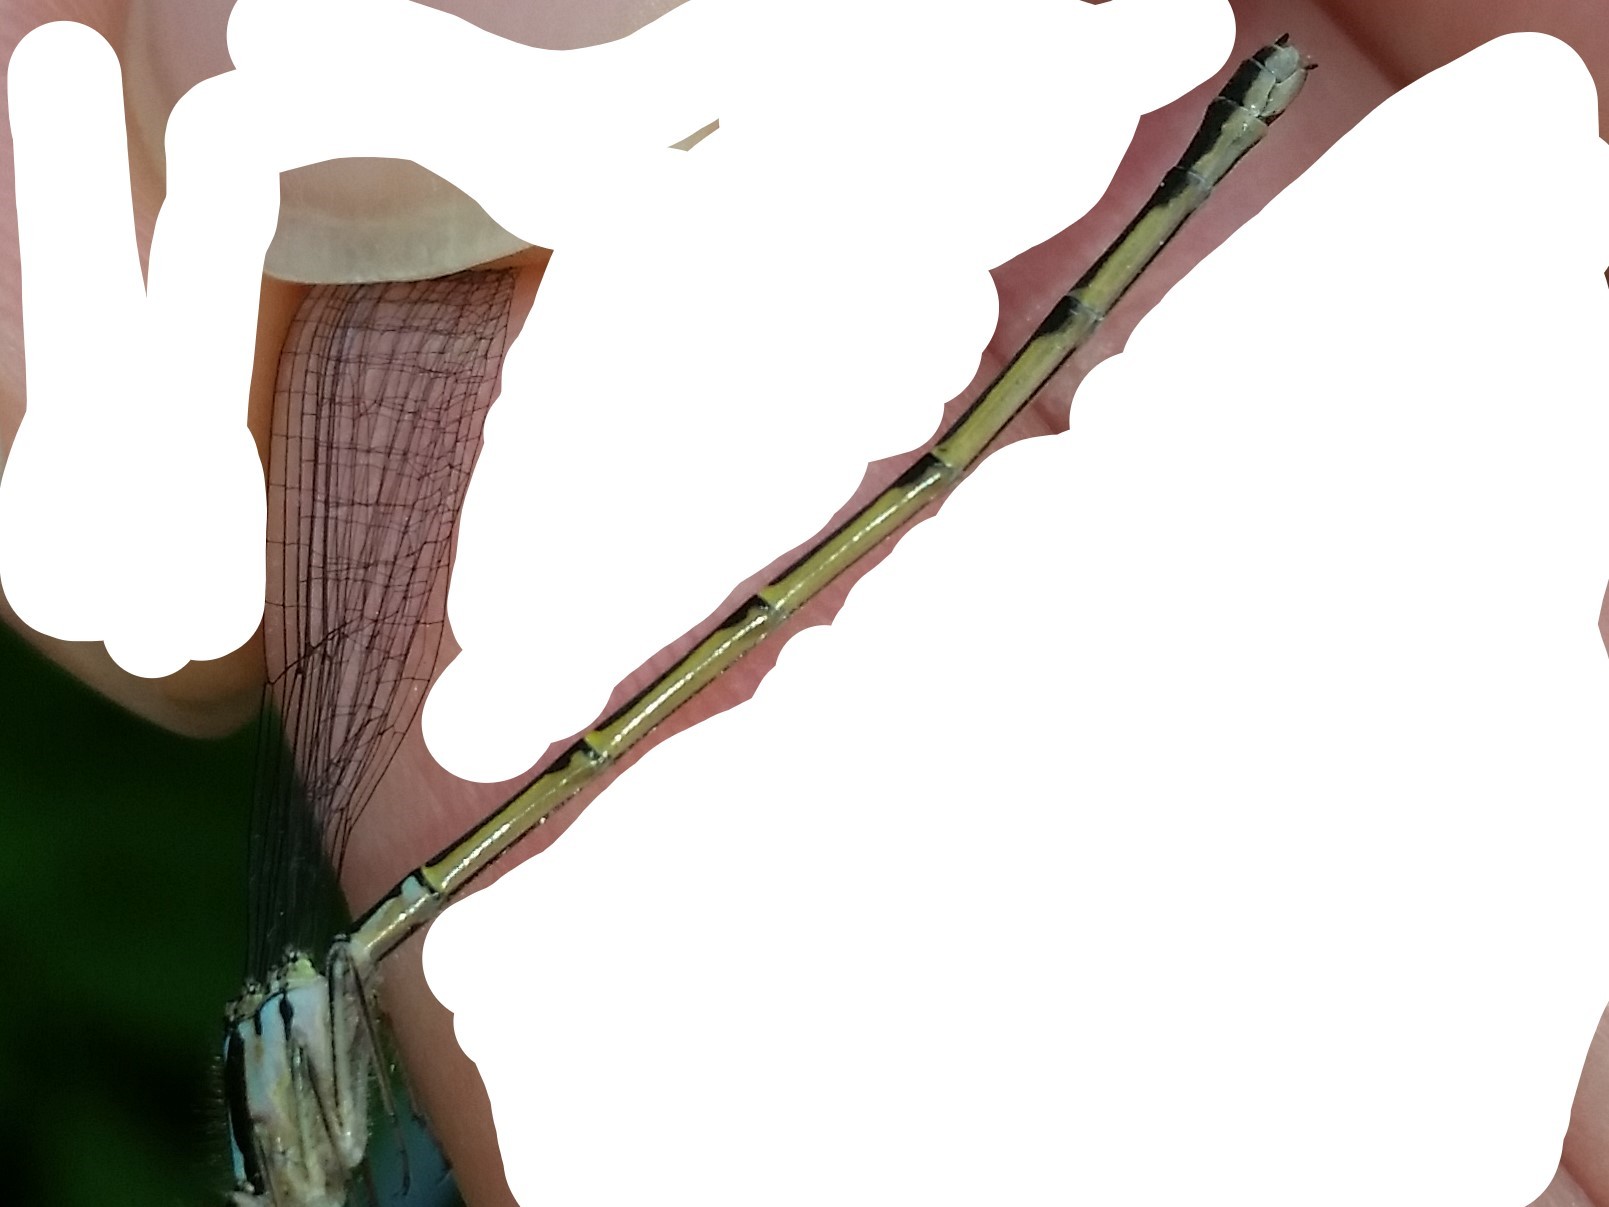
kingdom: Animalia
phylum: Arthropoda
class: Insecta
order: Odonata
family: Coenagrionidae
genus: Ischnura
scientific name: Ischnura posita
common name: Fragile forktail
